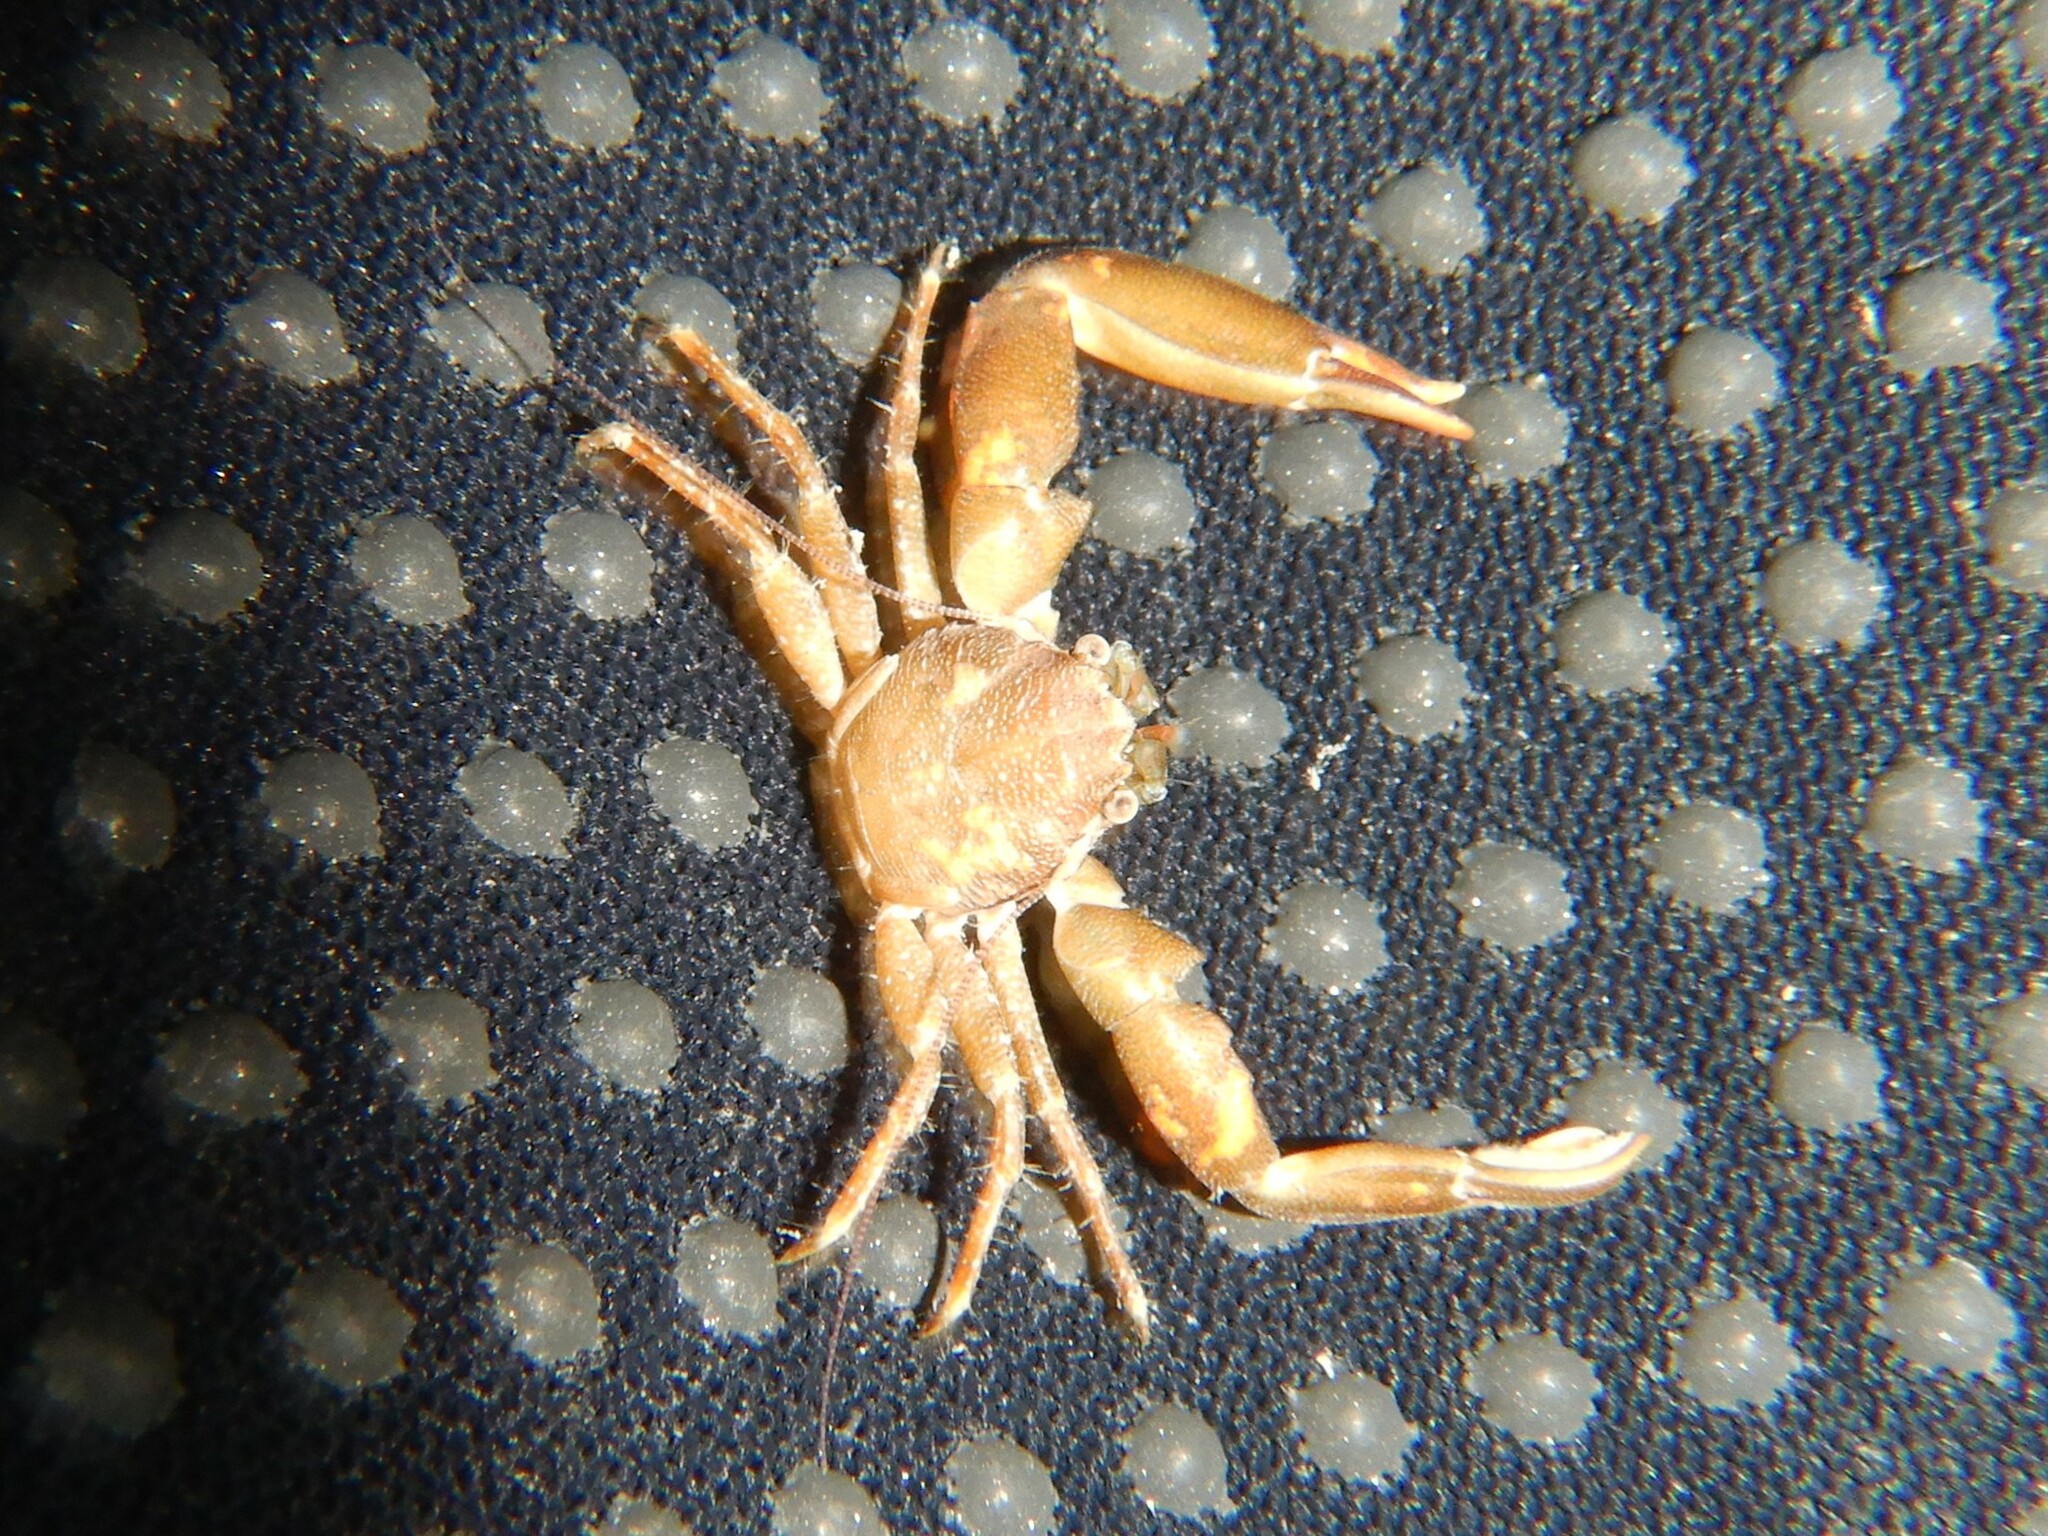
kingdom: Animalia
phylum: Arthropoda
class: Malacostraca
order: Decapoda
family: Porcellanidae
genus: Pisidia
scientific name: Pisidia longicornis
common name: Long clawed porcelain crab
